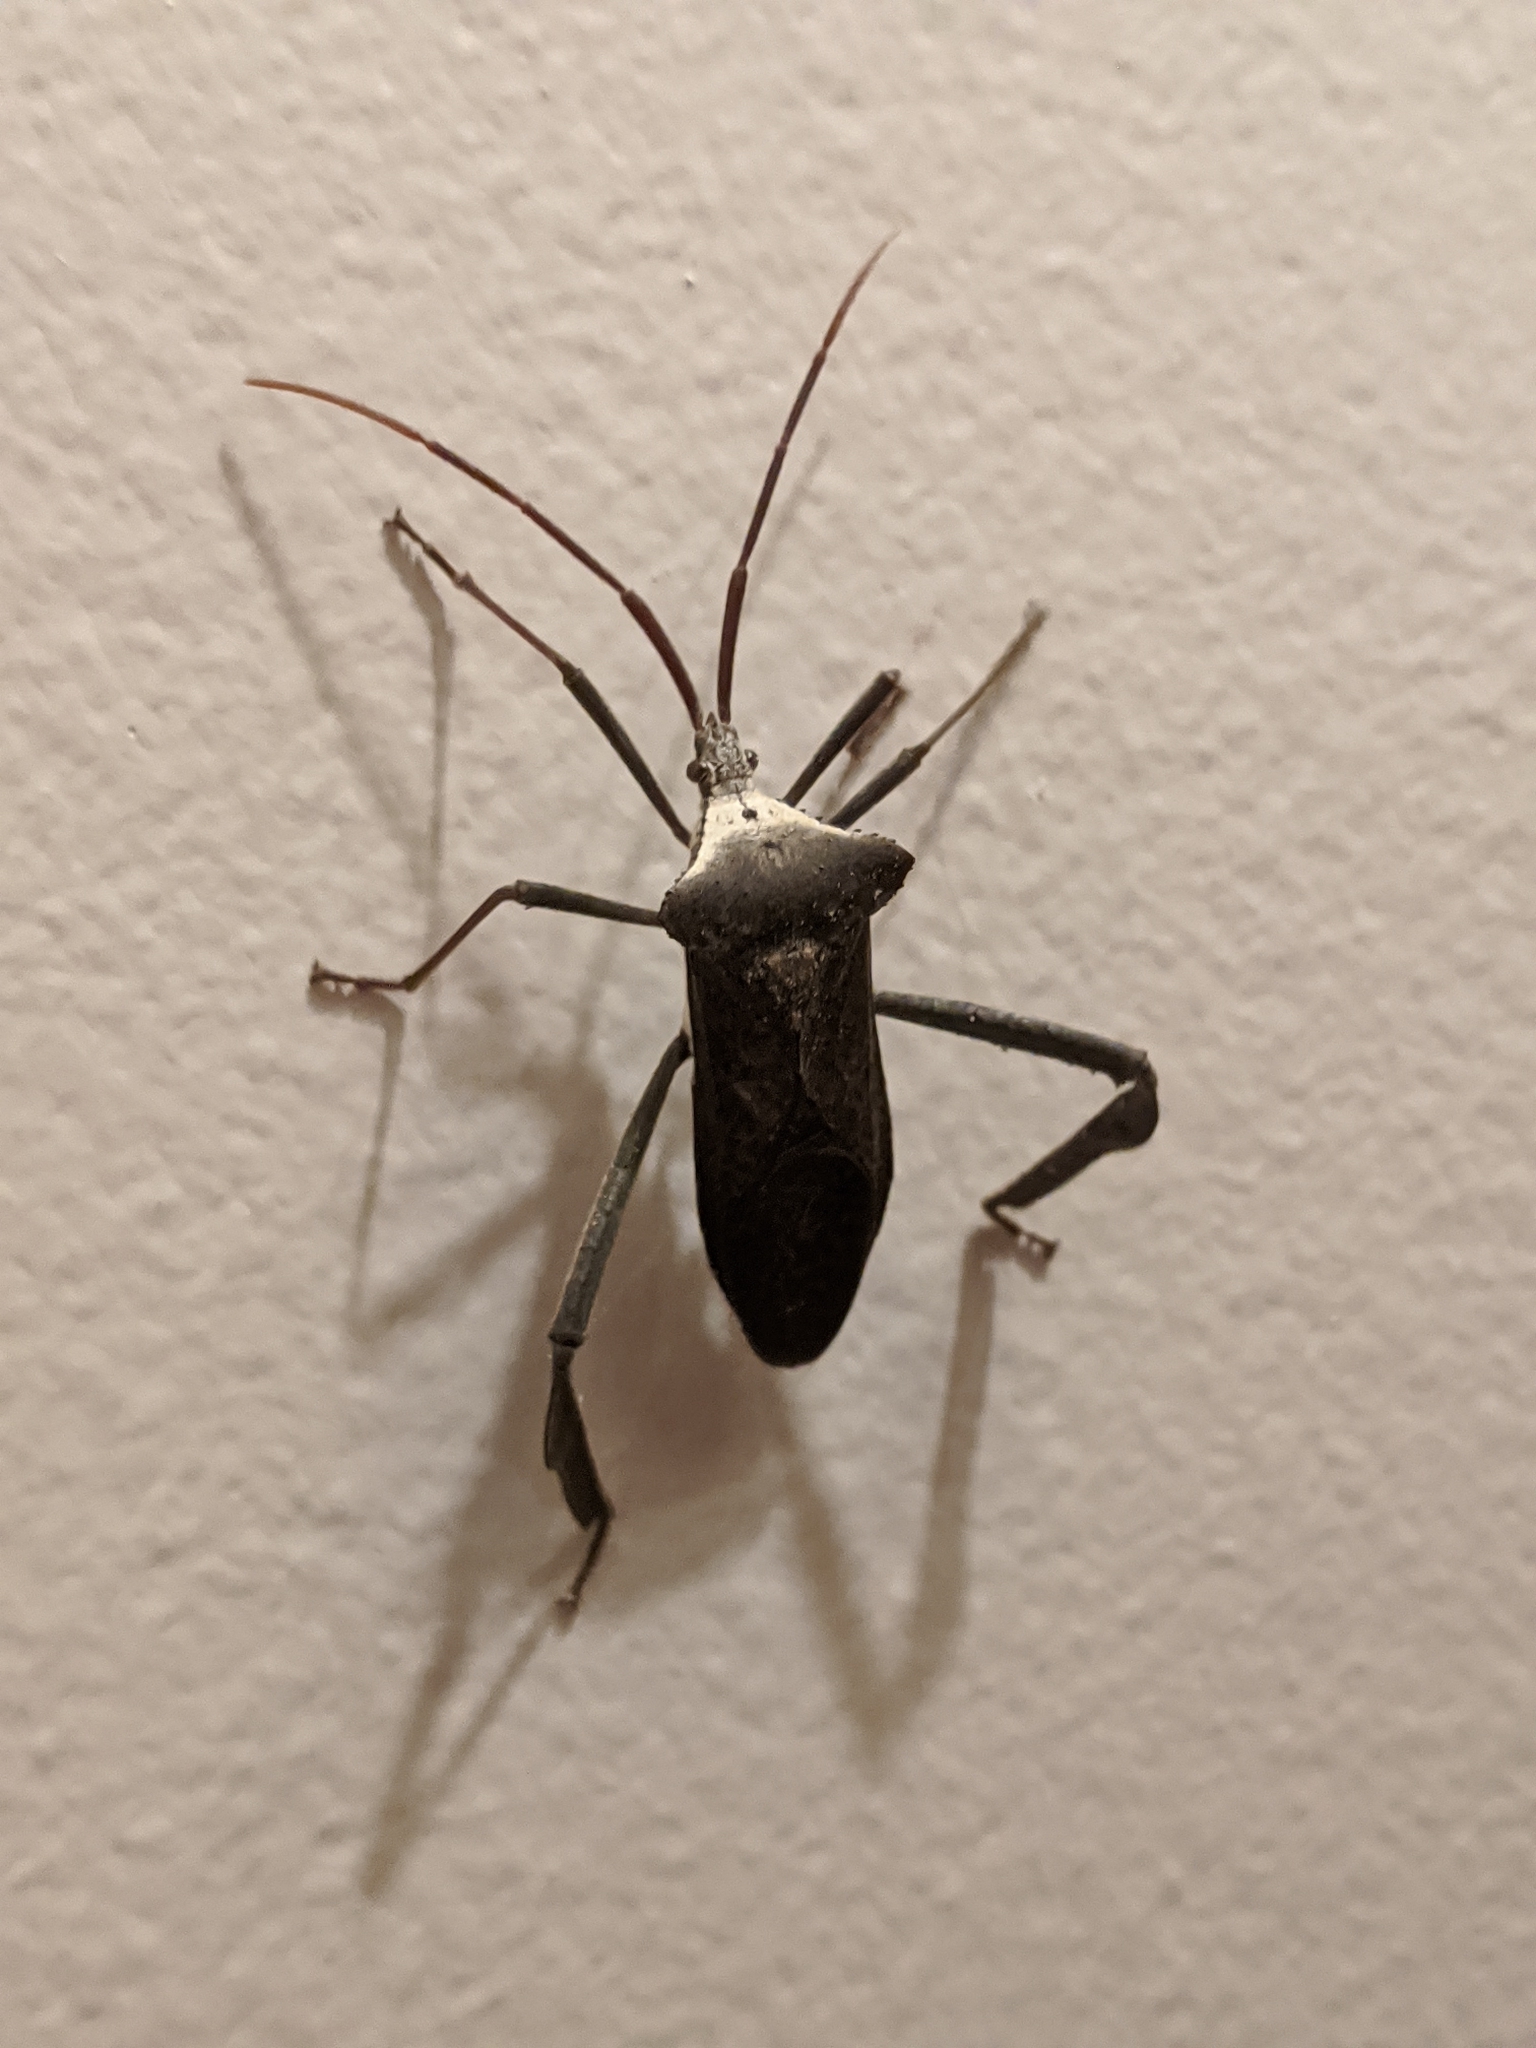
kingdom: Animalia
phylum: Arthropoda
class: Insecta
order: Hemiptera
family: Coreidae
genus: Acanthocephala
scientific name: Acanthocephala declivis
